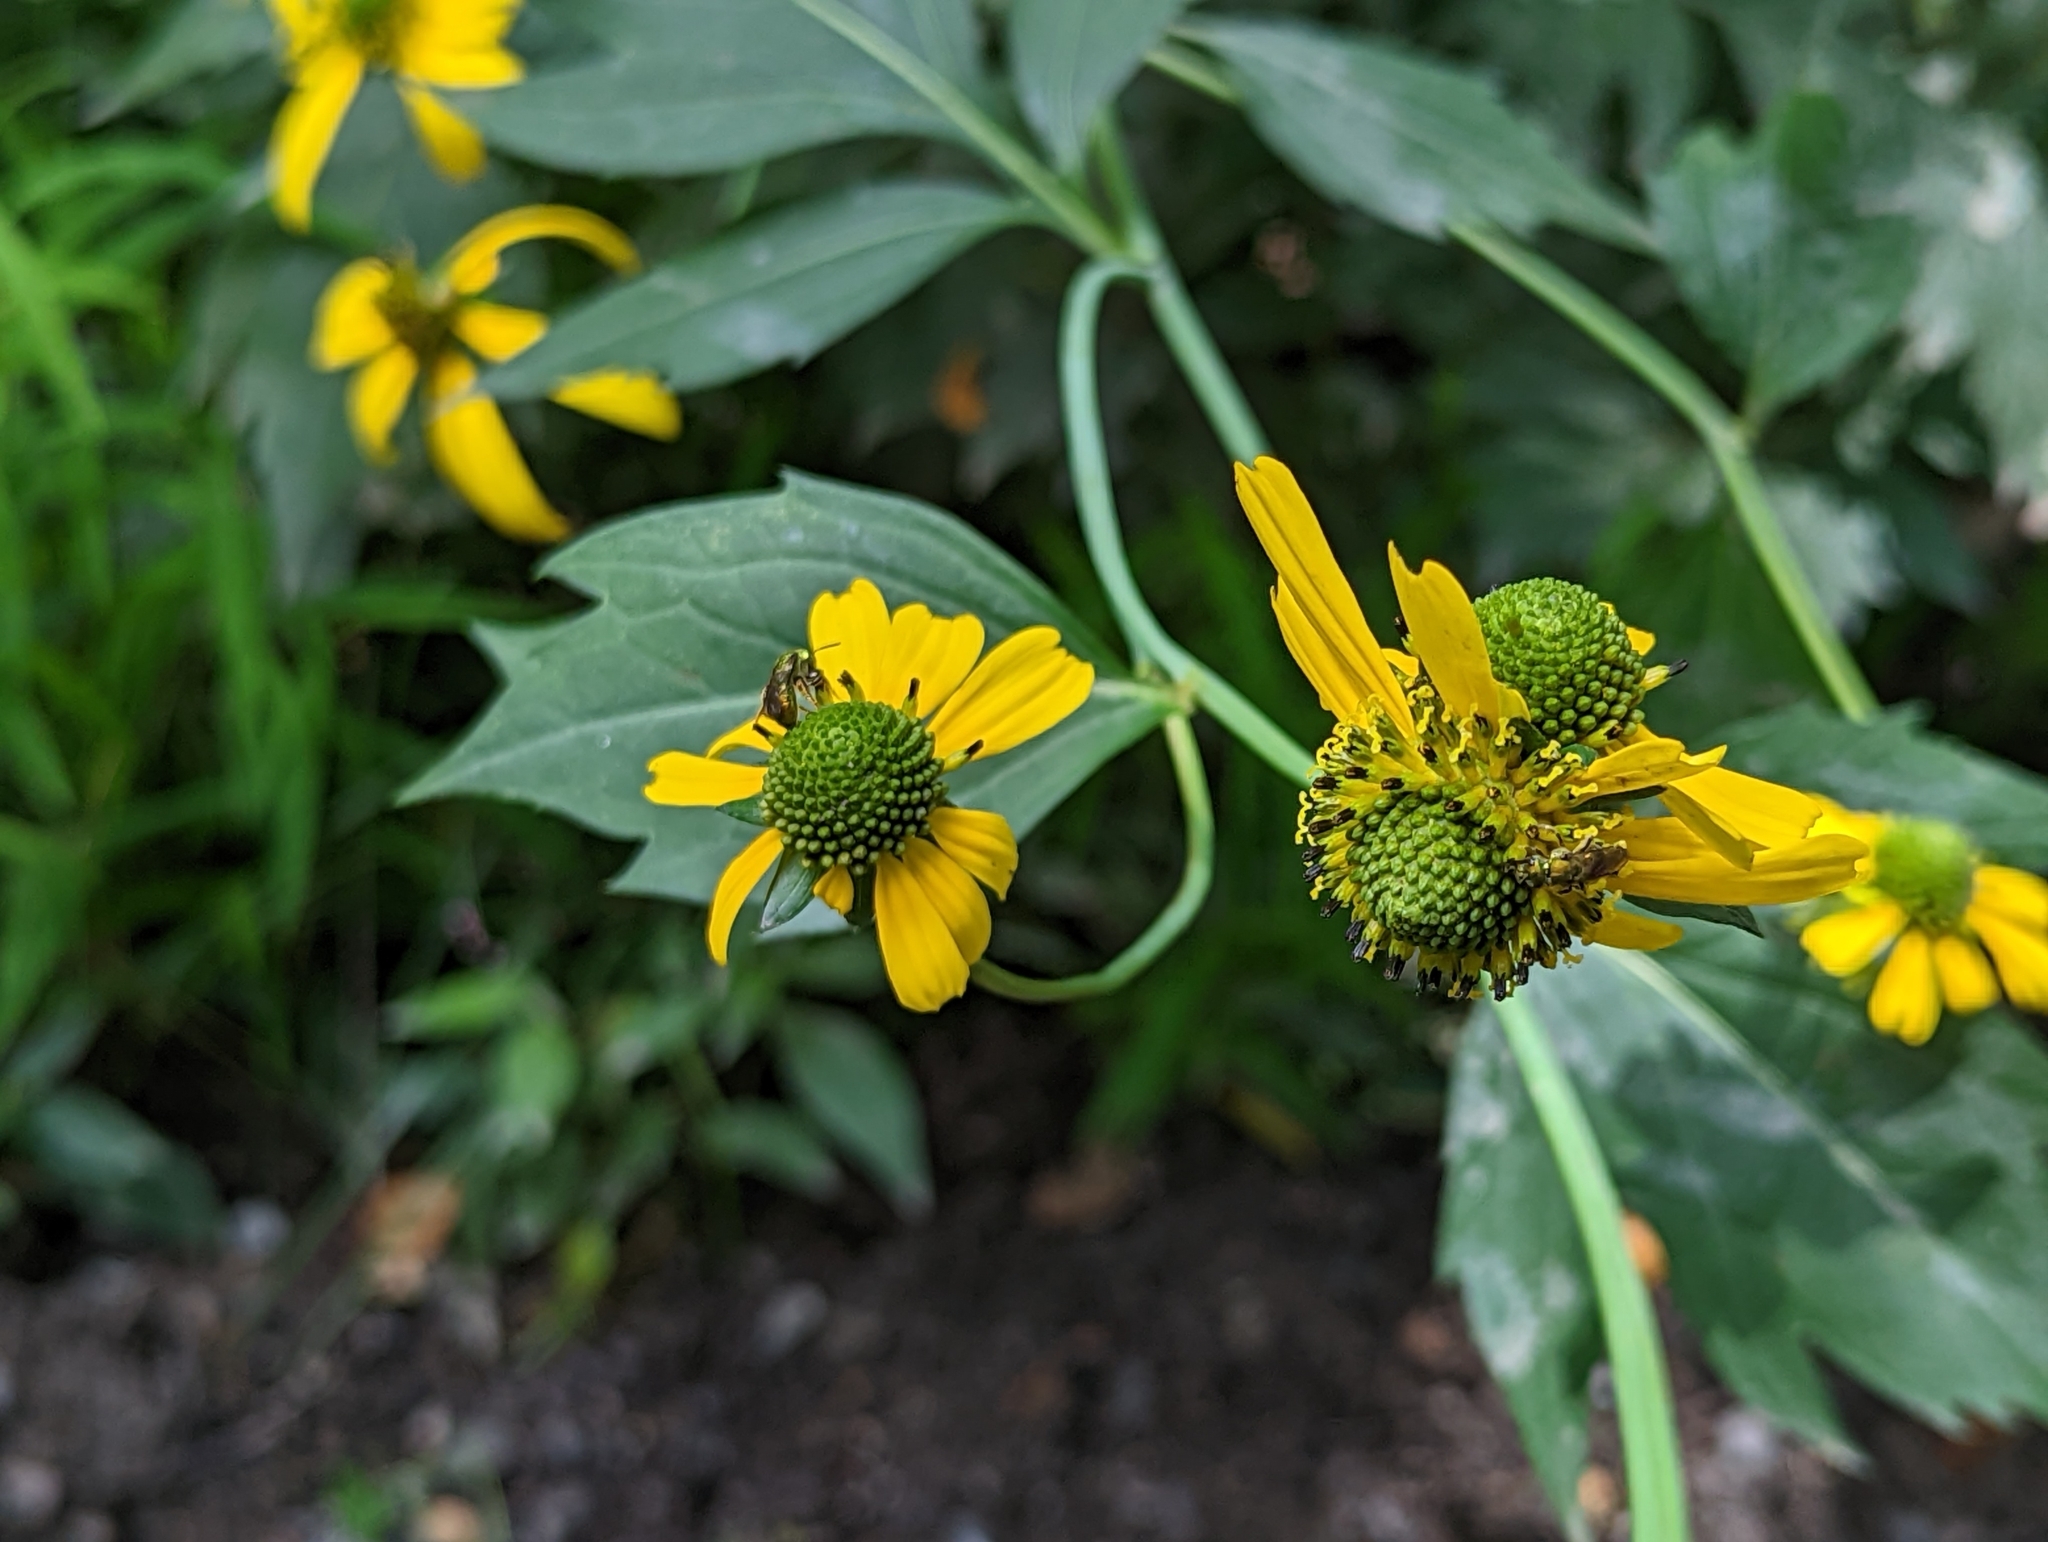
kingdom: Plantae
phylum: Tracheophyta
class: Magnoliopsida
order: Asterales
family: Asteraceae
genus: Rudbeckia
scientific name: Rudbeckia laciniata
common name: Coneflower
